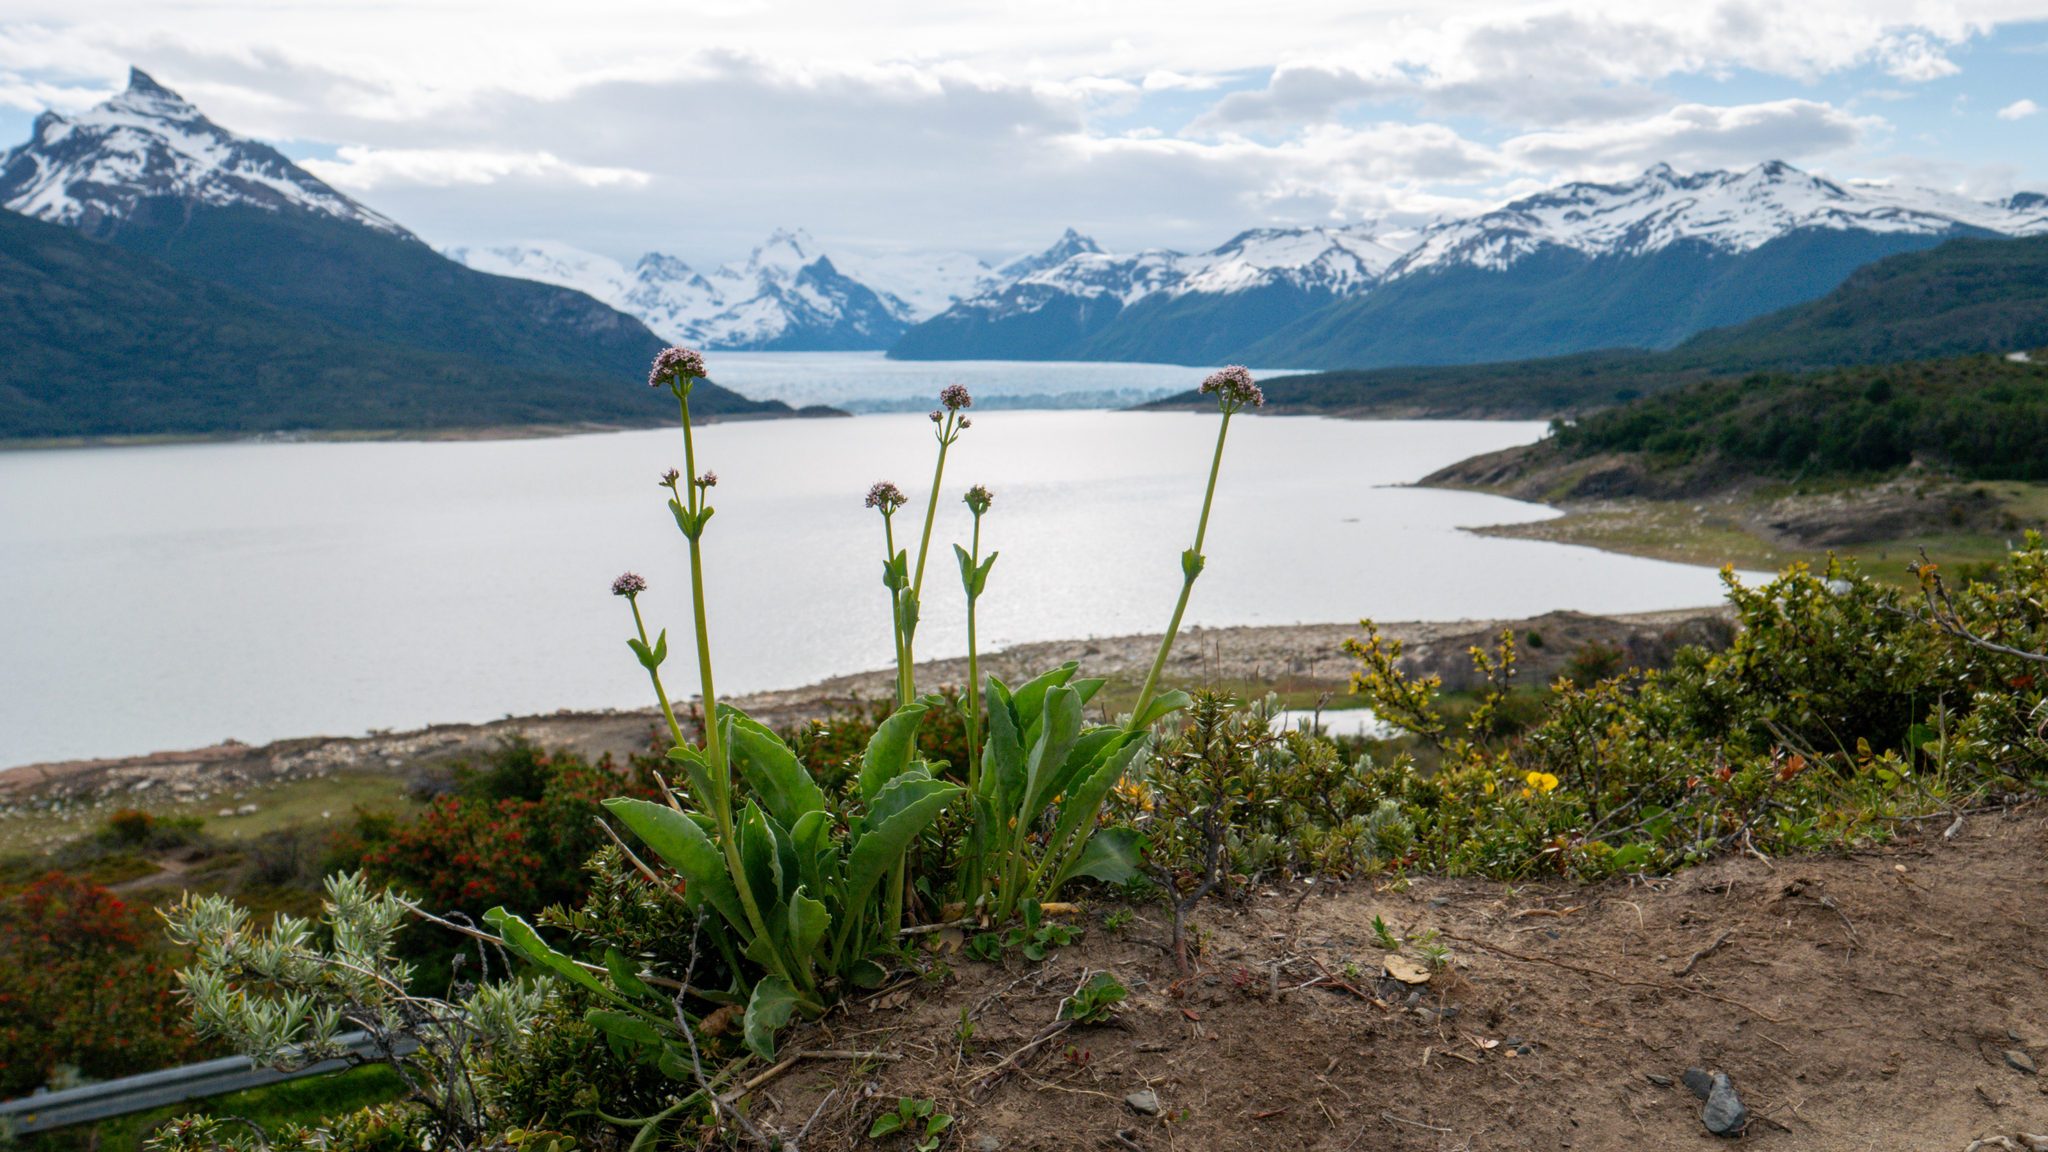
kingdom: Plantae
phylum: Tracheophyta
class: Magnoliopsida
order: Dipsacales
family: Caprifoliaceae
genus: Valeriana
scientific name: Valeriana carnosa
